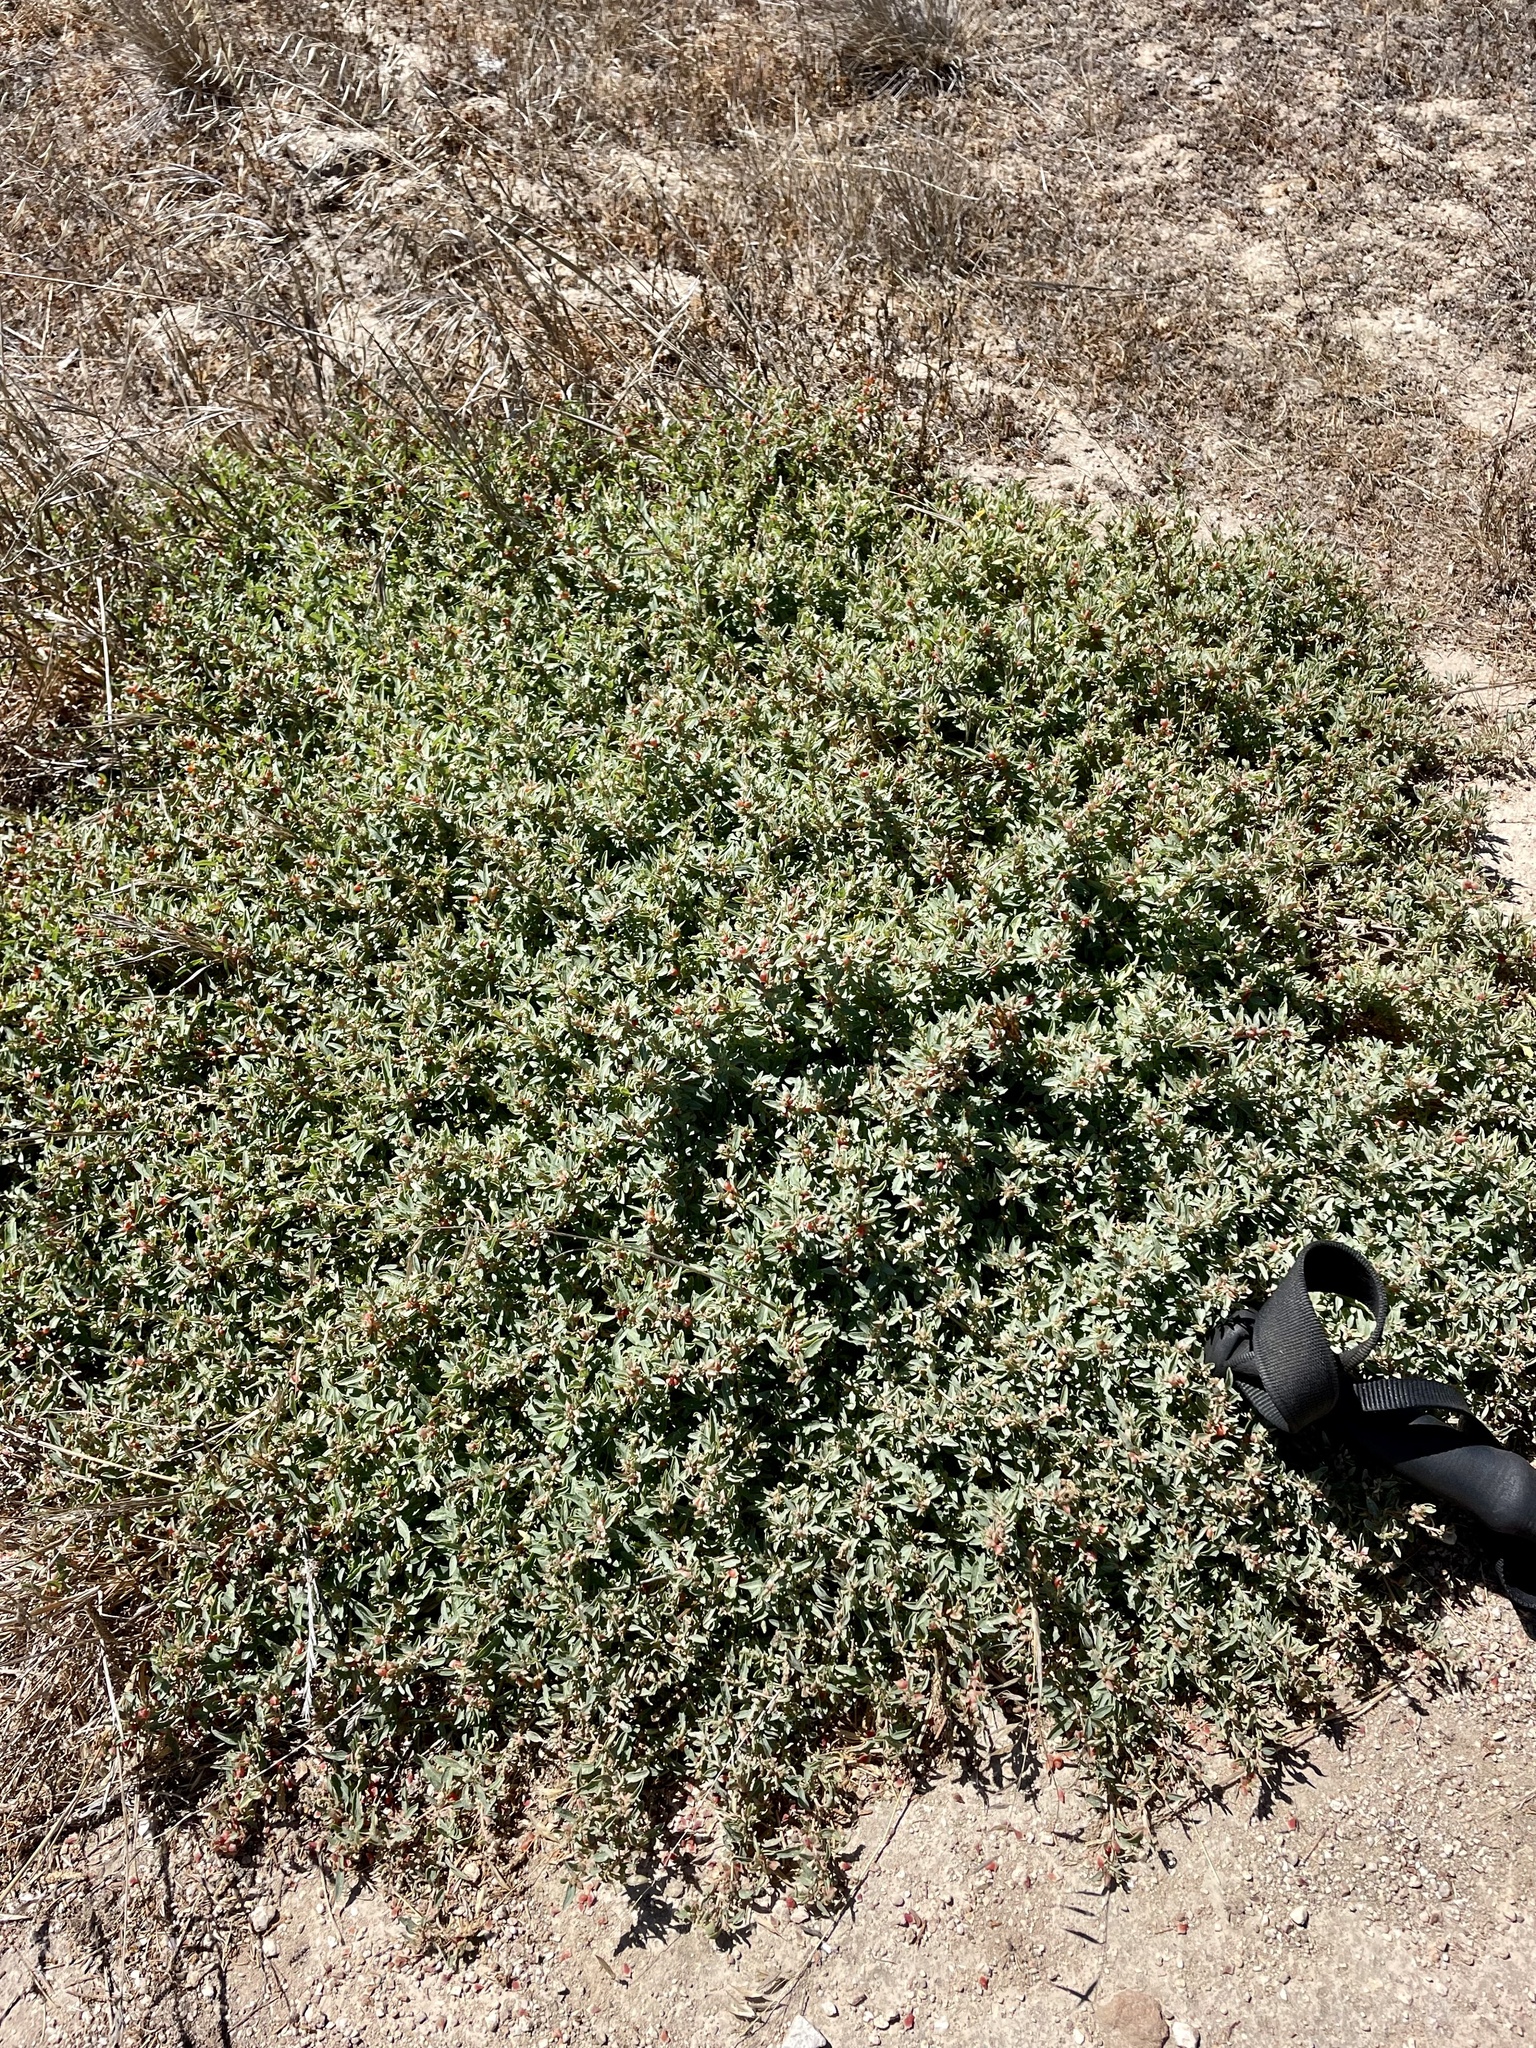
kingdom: Plantae
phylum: Tracheophyta
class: Magnoliopsida
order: Caryophyllales
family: Amaranthaceae
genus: Atriplex
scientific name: Atriplex semibaccata
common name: Australian saltbush
